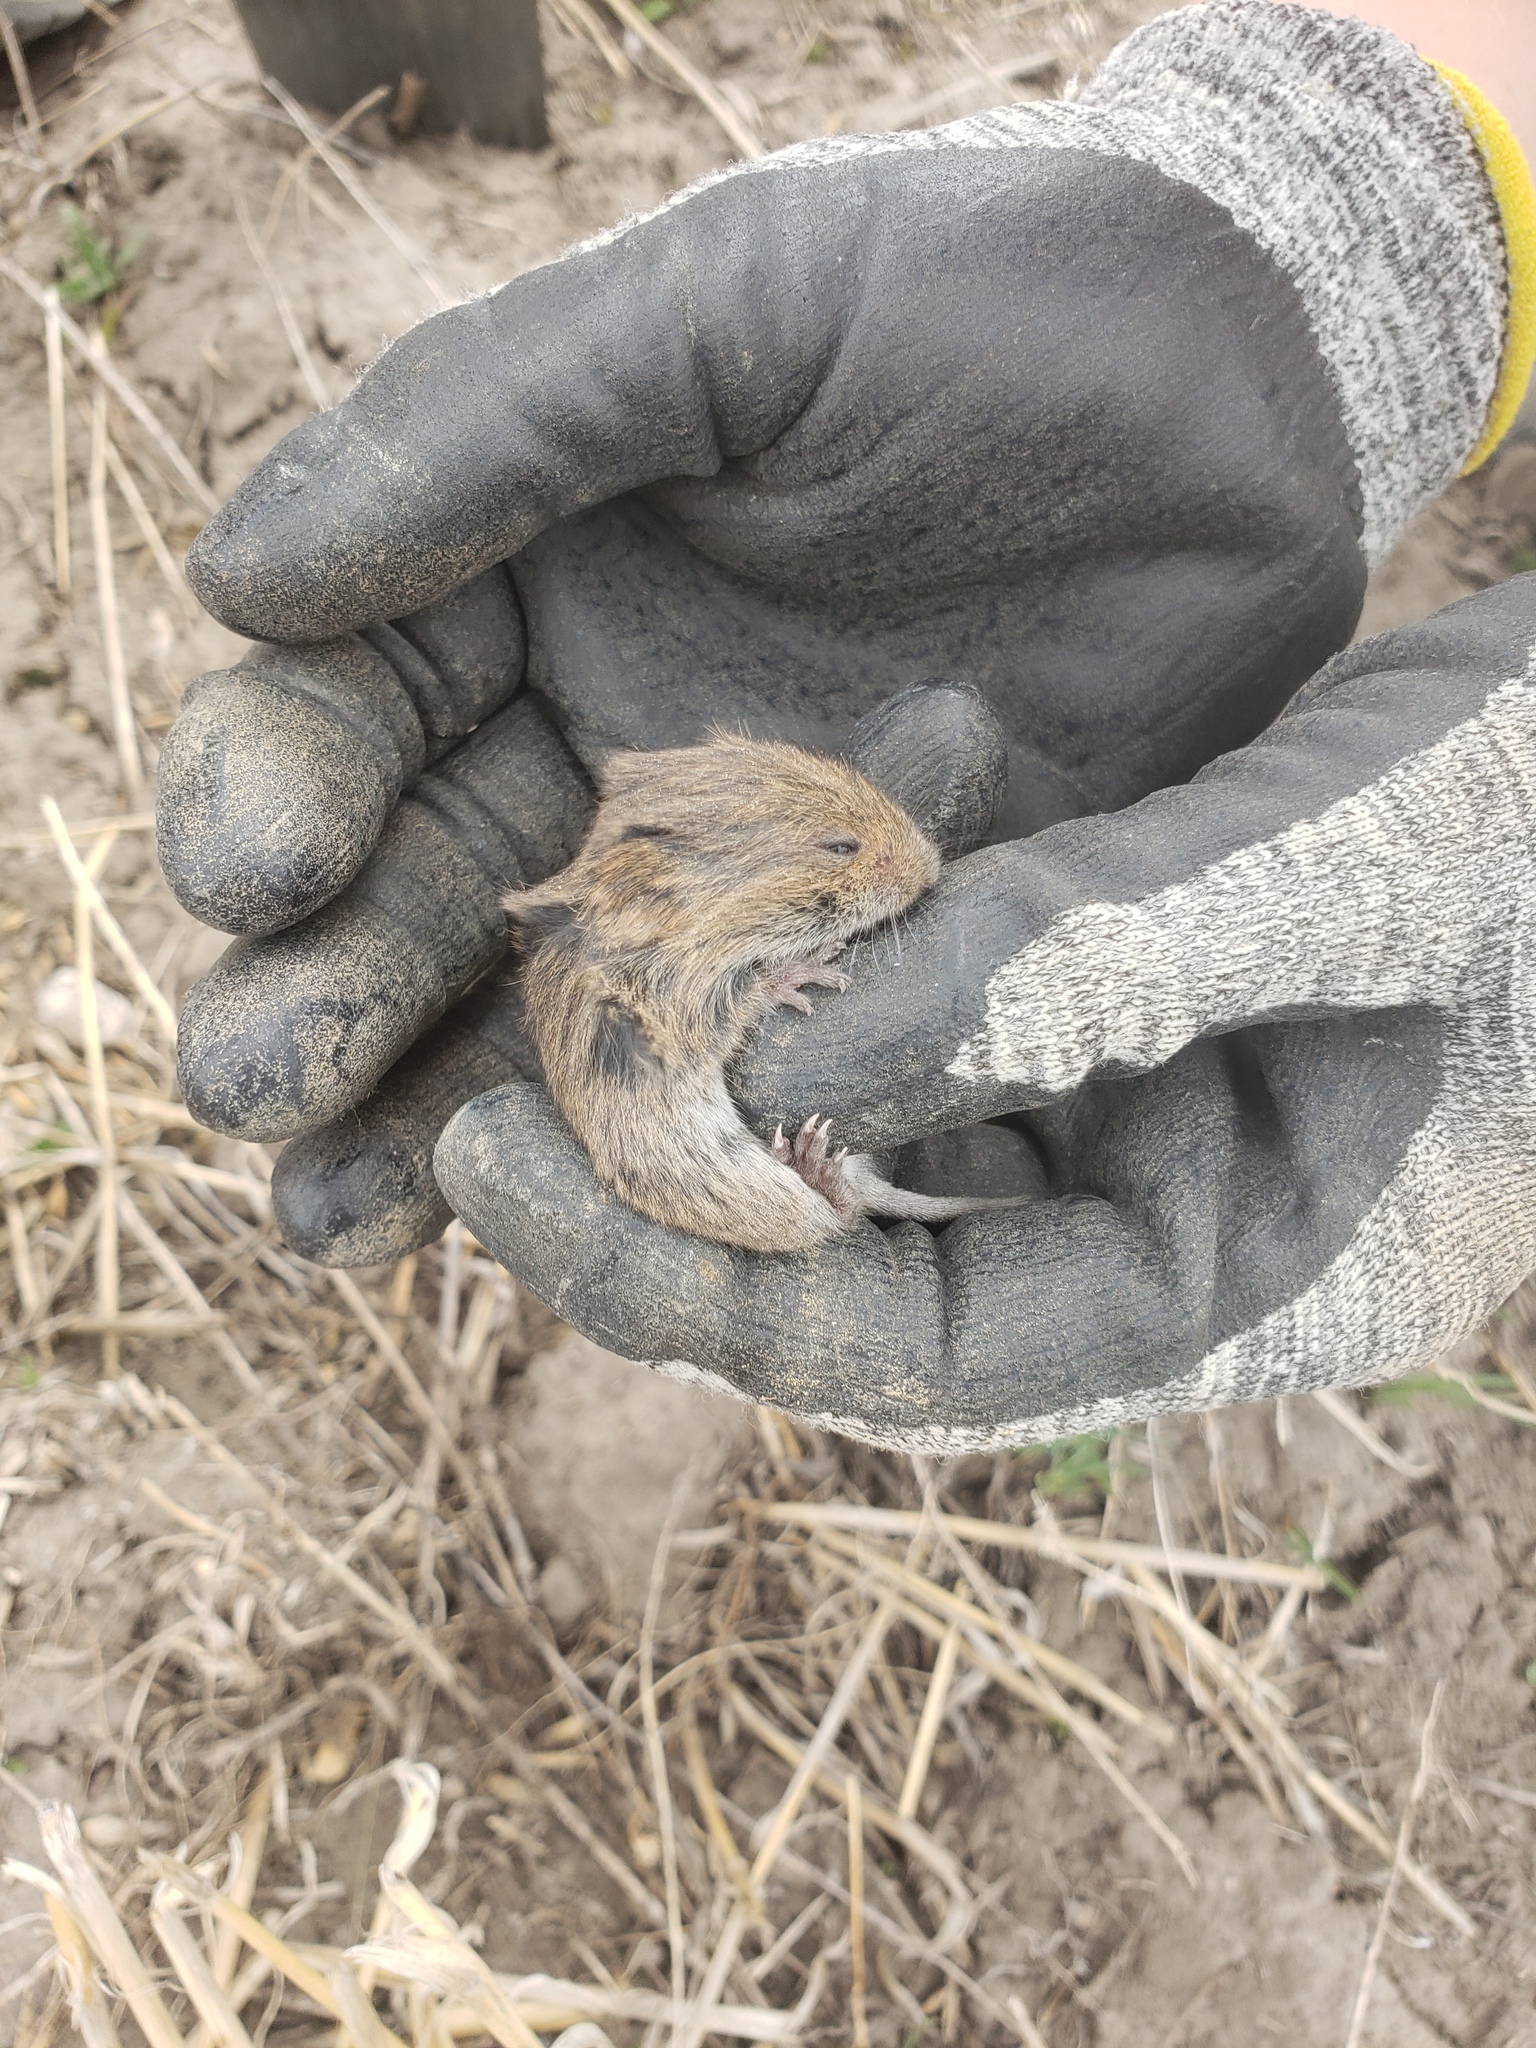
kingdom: Animalia
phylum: Chordata
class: Mammalia
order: Rodentia
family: Cricetidae
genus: Microtus
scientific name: Microtus pennsylvanicus
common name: Meadow vole
